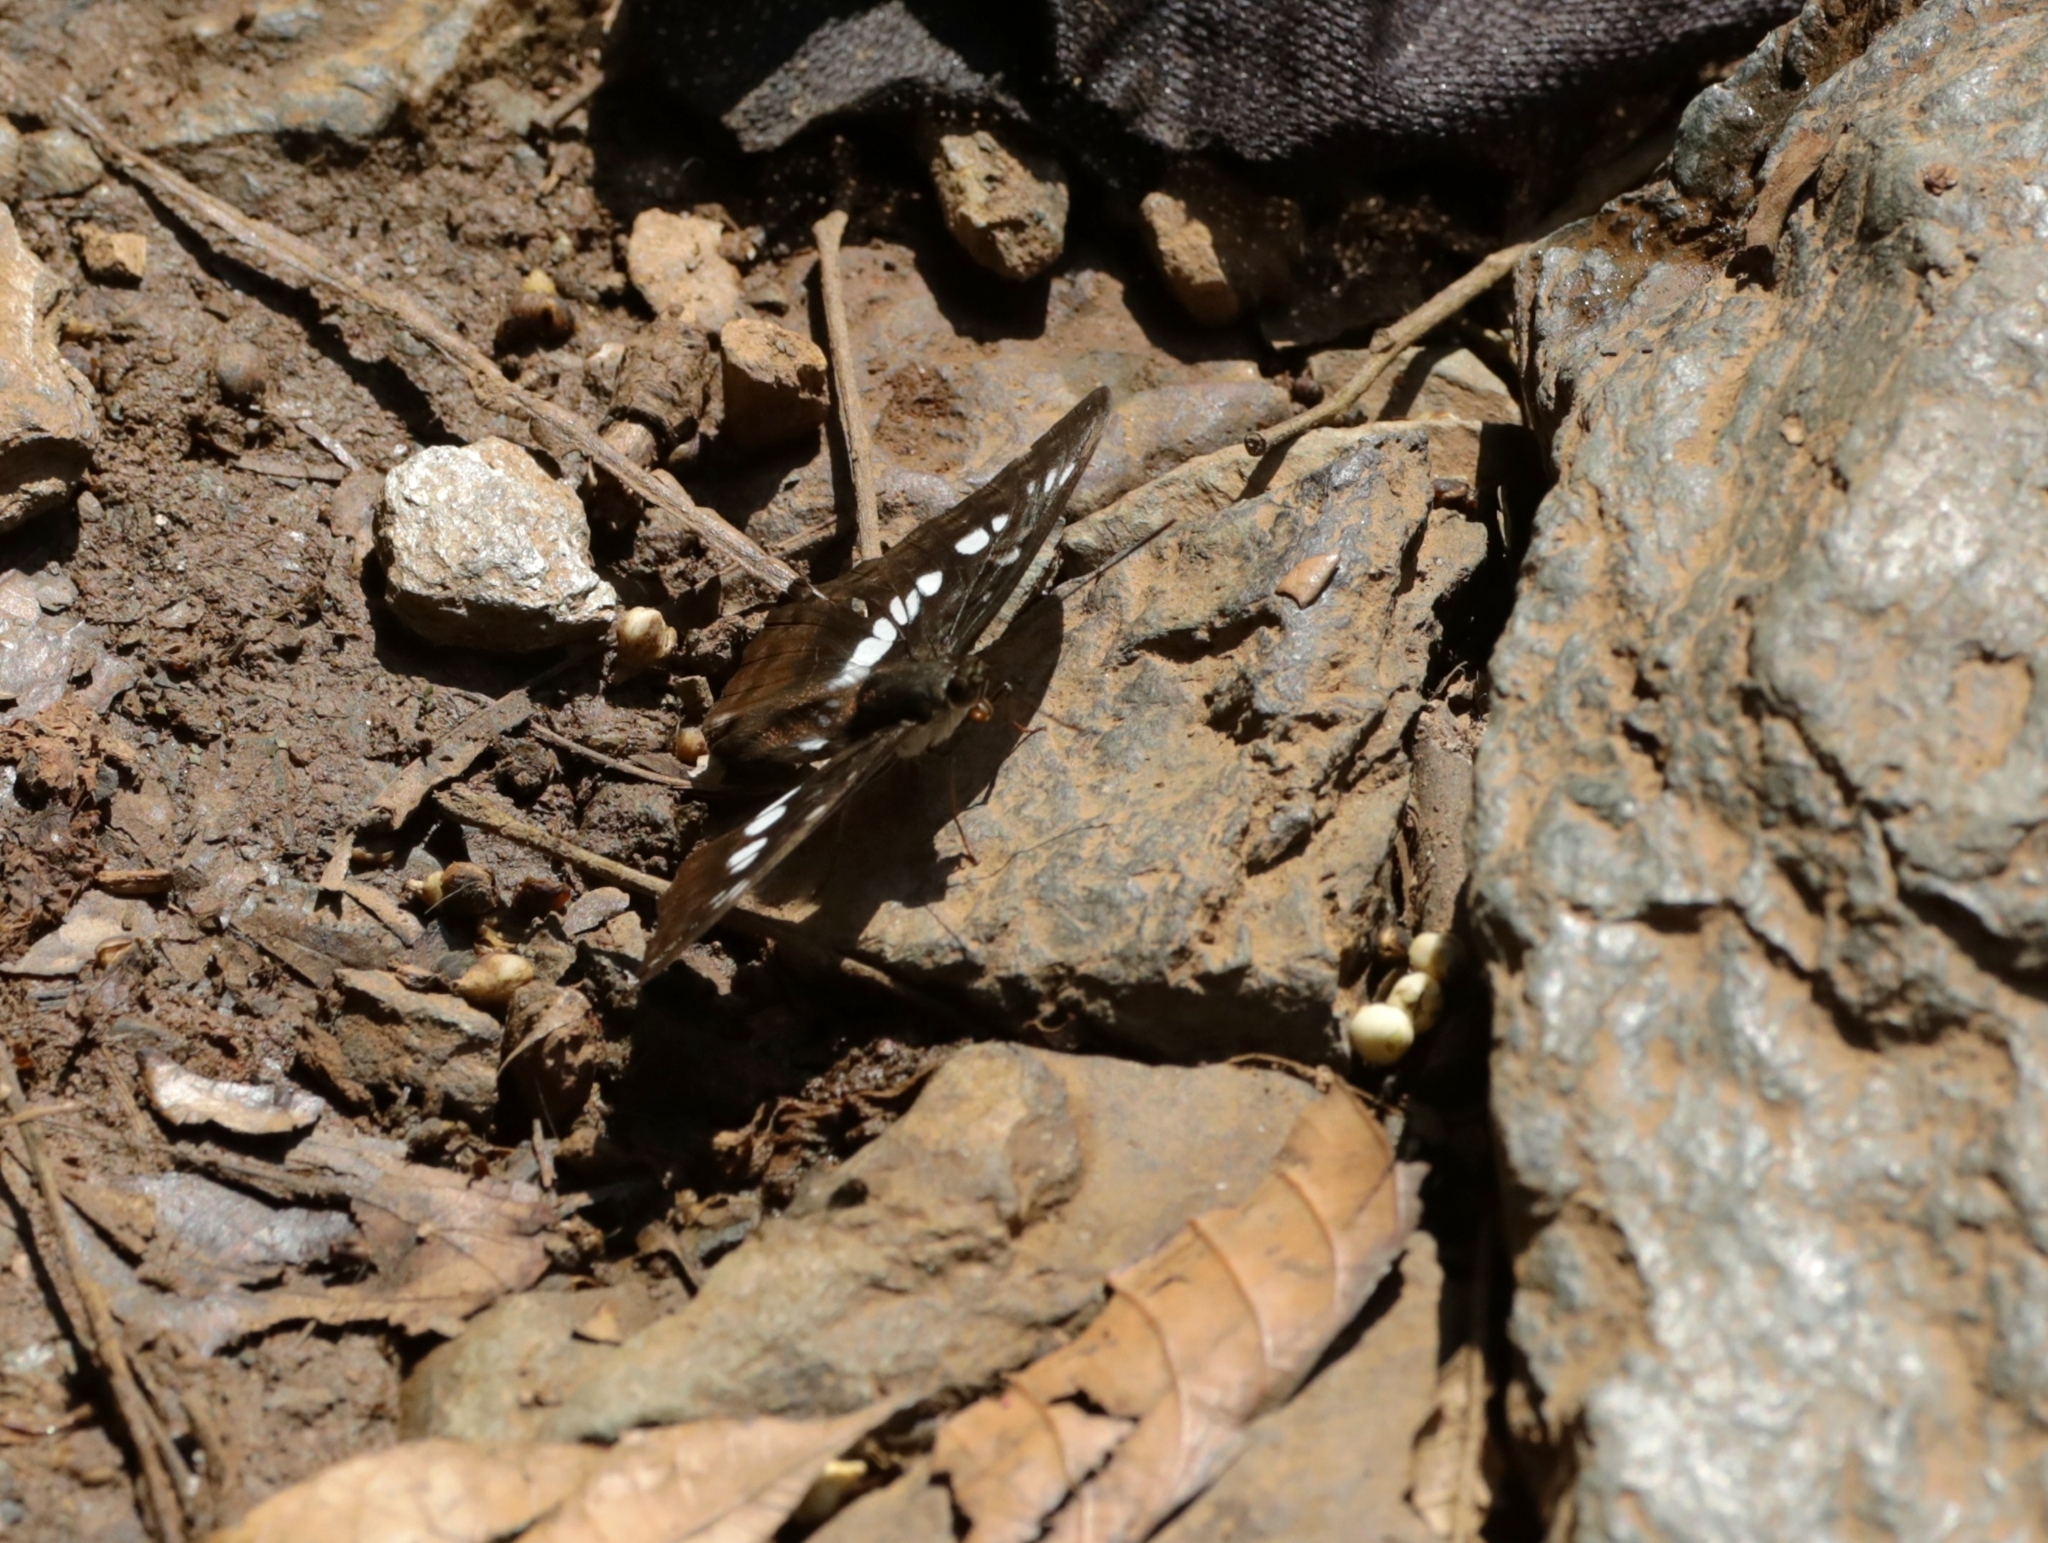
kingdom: Animalia
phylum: Arthropoda
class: Insecta
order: Lepidoptera
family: Nymphalidae
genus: Parathyma
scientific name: Parathyma ranga
